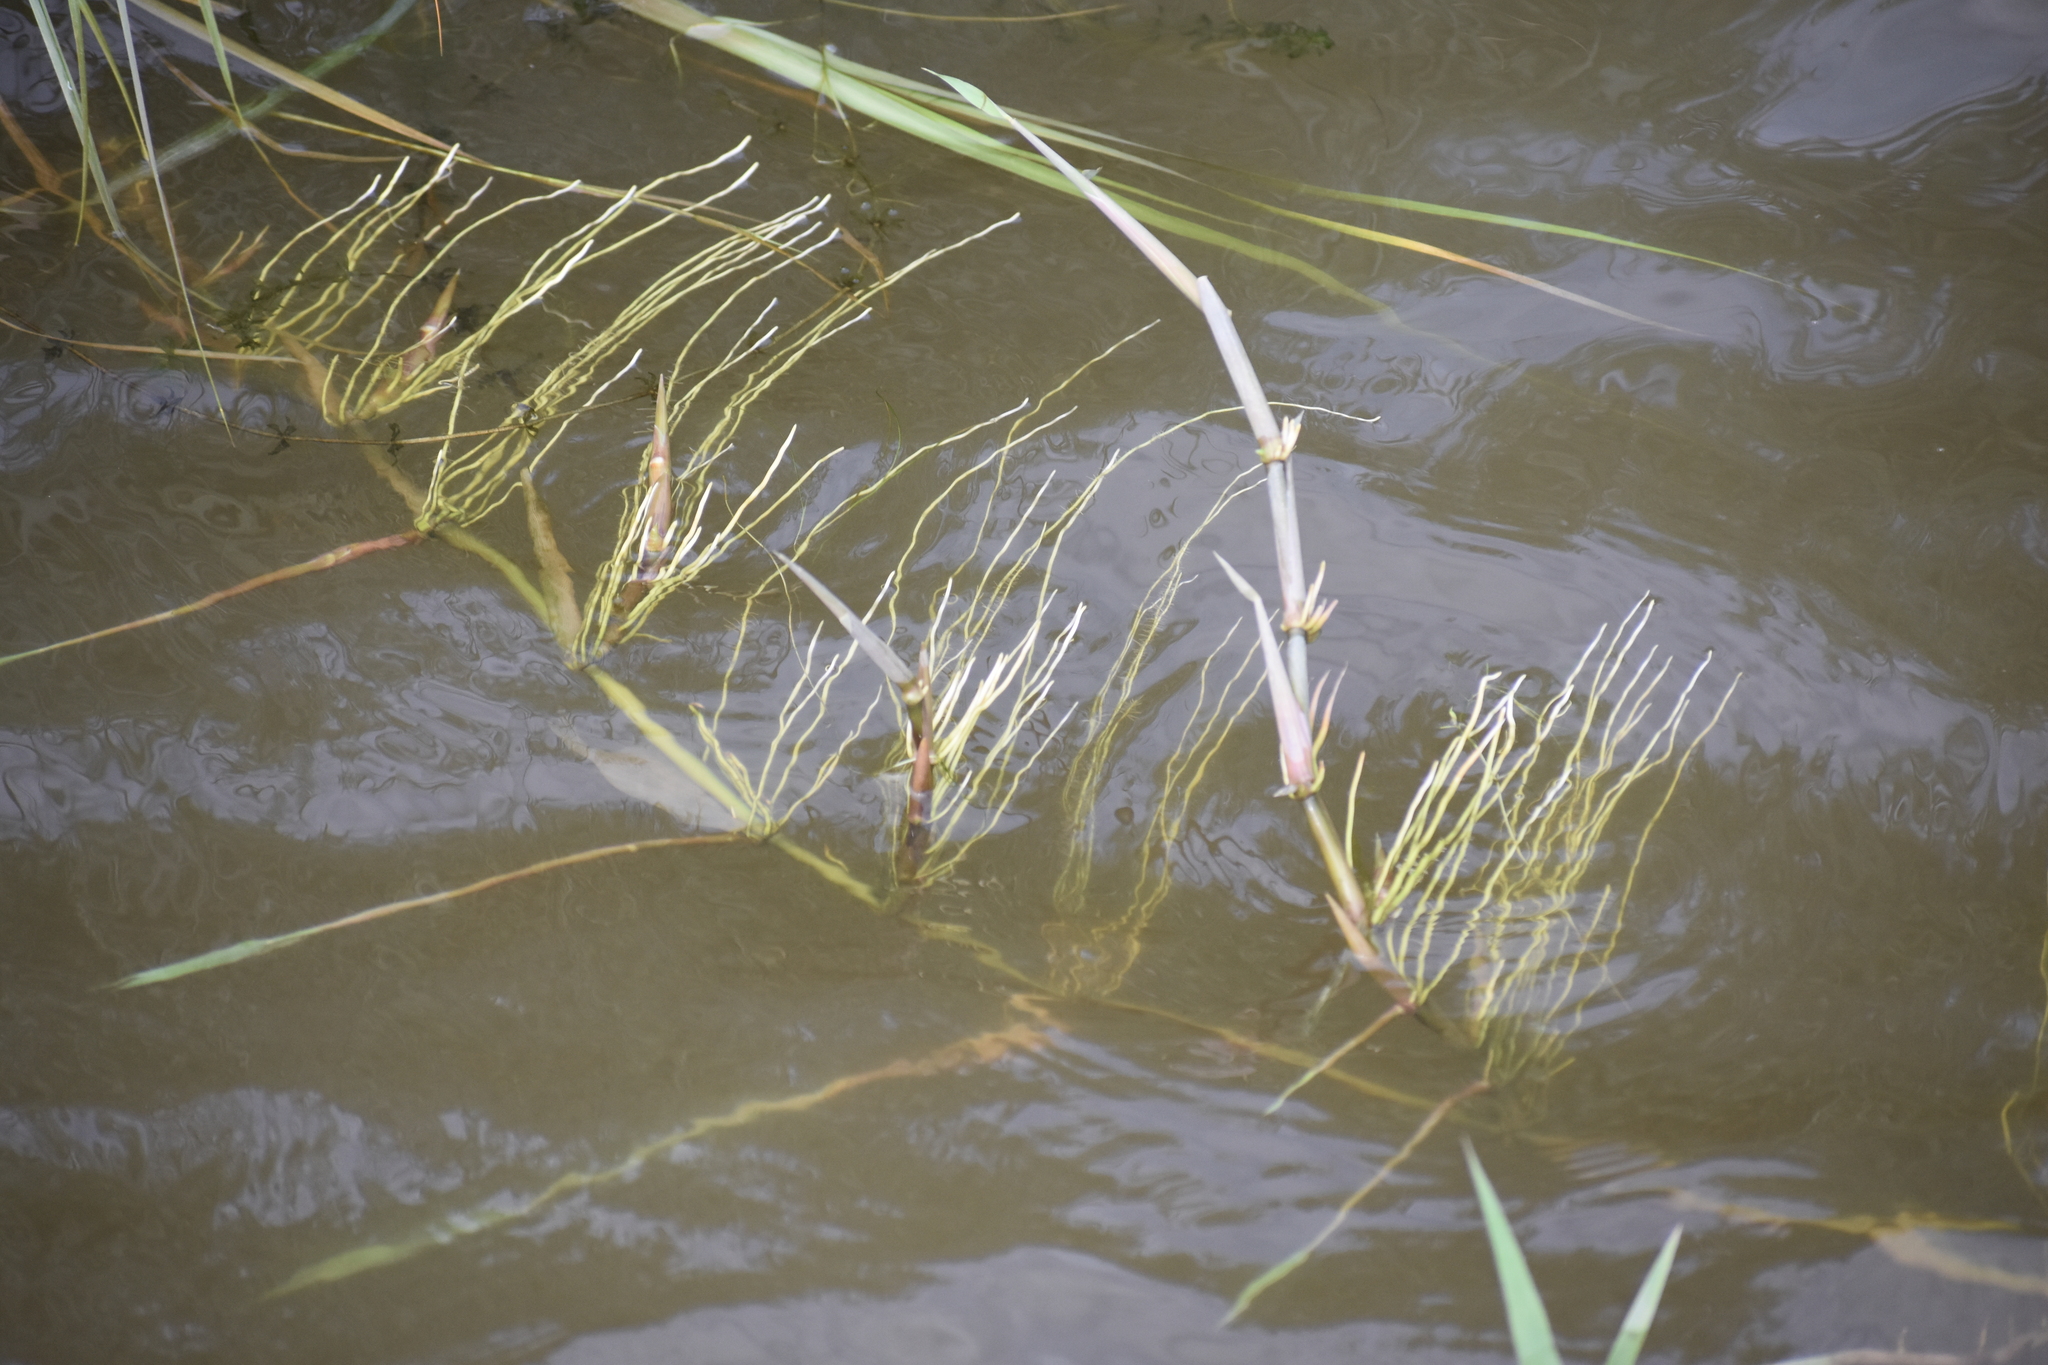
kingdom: Plantae
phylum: Tracheophyta
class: Liliopsida
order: Poales
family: Poaceae
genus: Phragmites
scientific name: Phragmites australis
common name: Common reed
